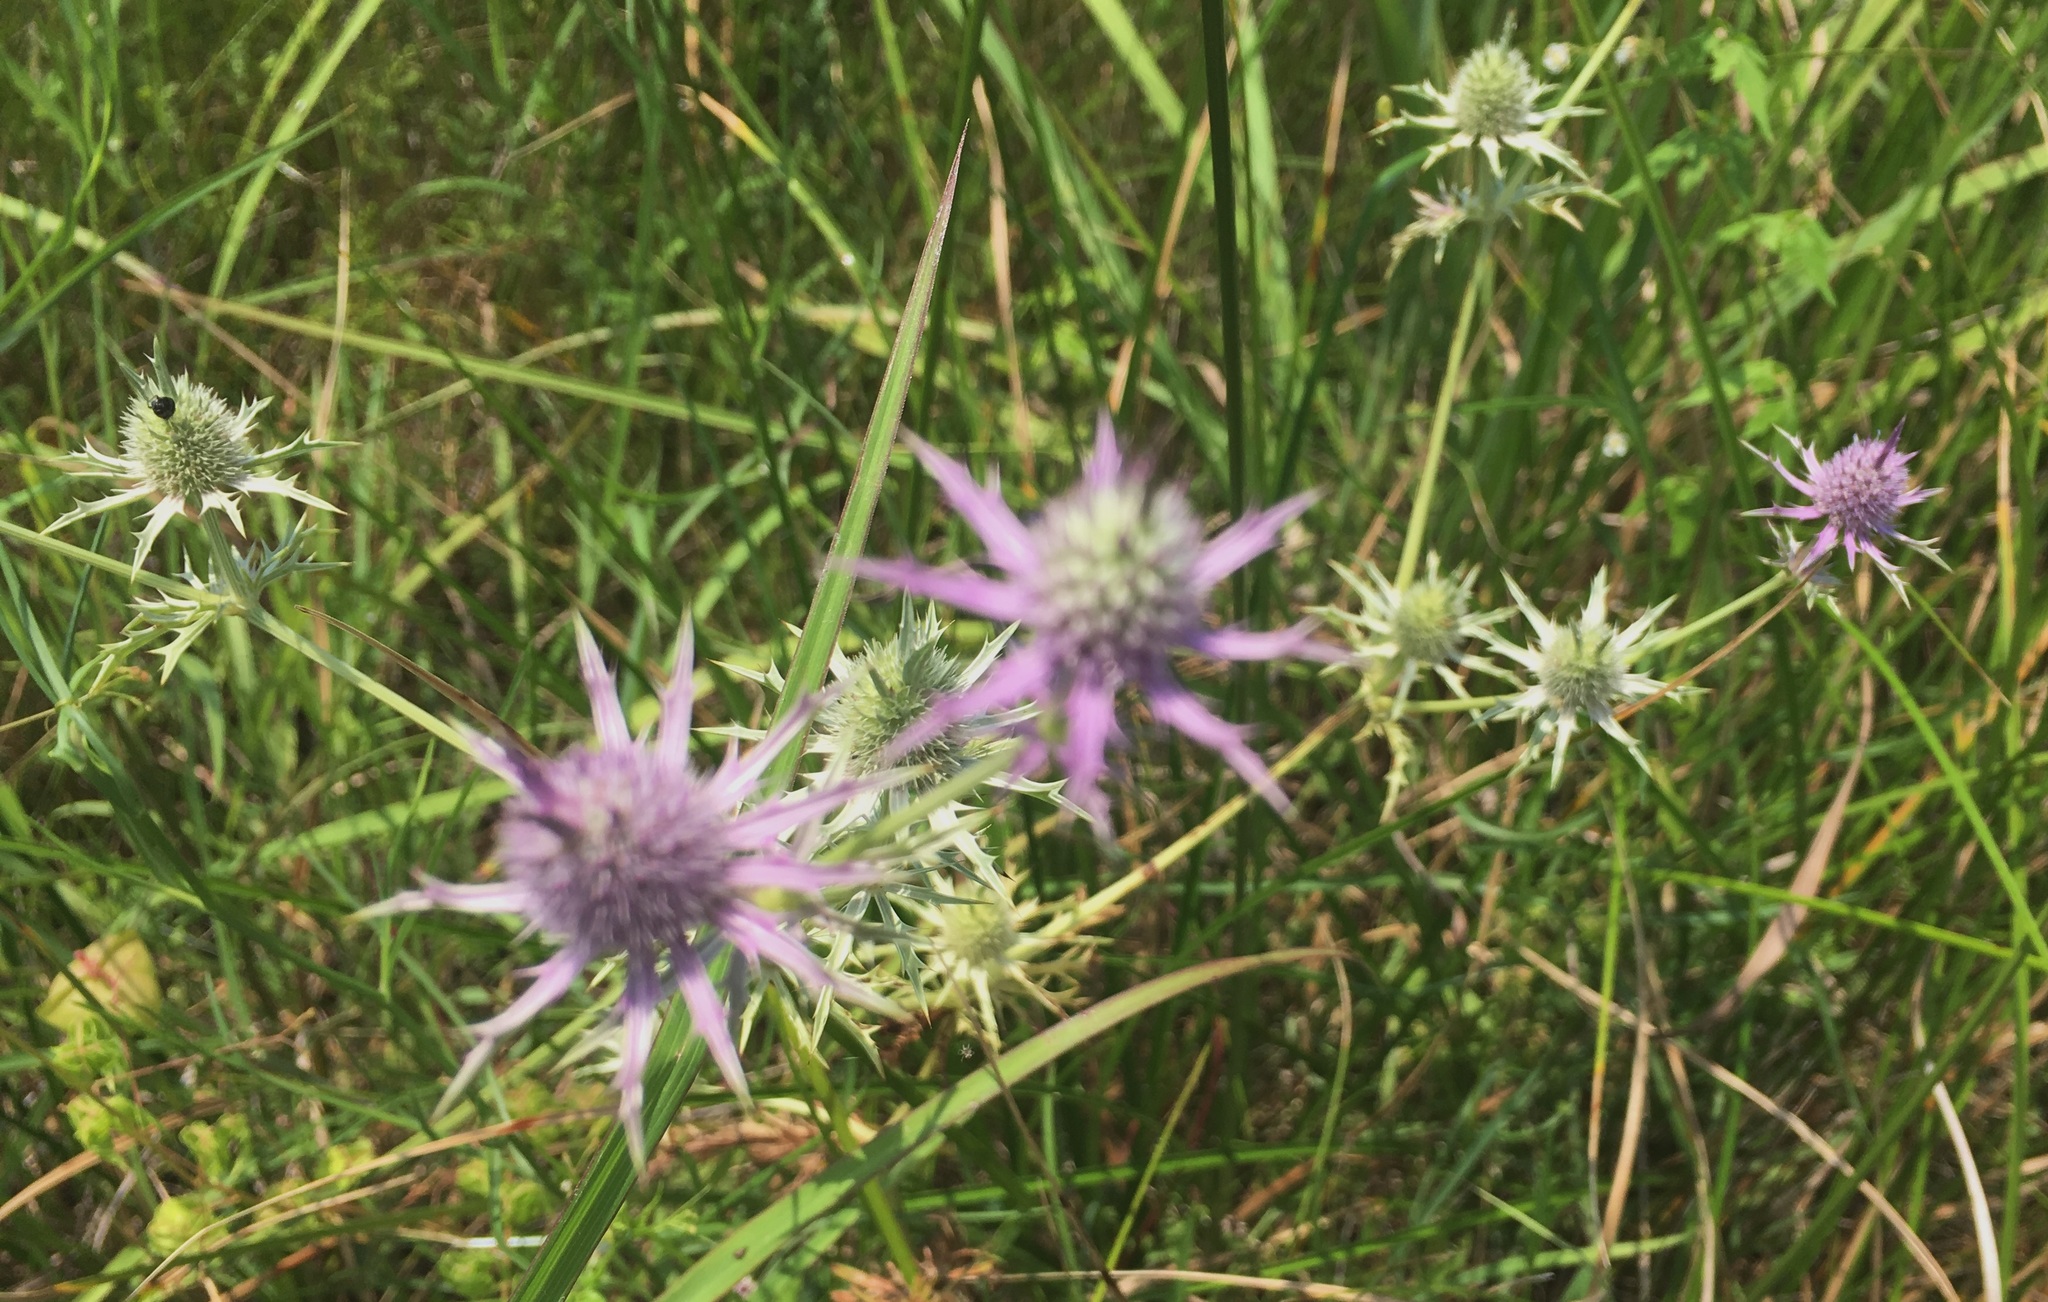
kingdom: Plantae
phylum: Tracheophyta
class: Magnoliopsida
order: Apiales
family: Apiaceae
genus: Eryngium
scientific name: Eryngium hookeri
